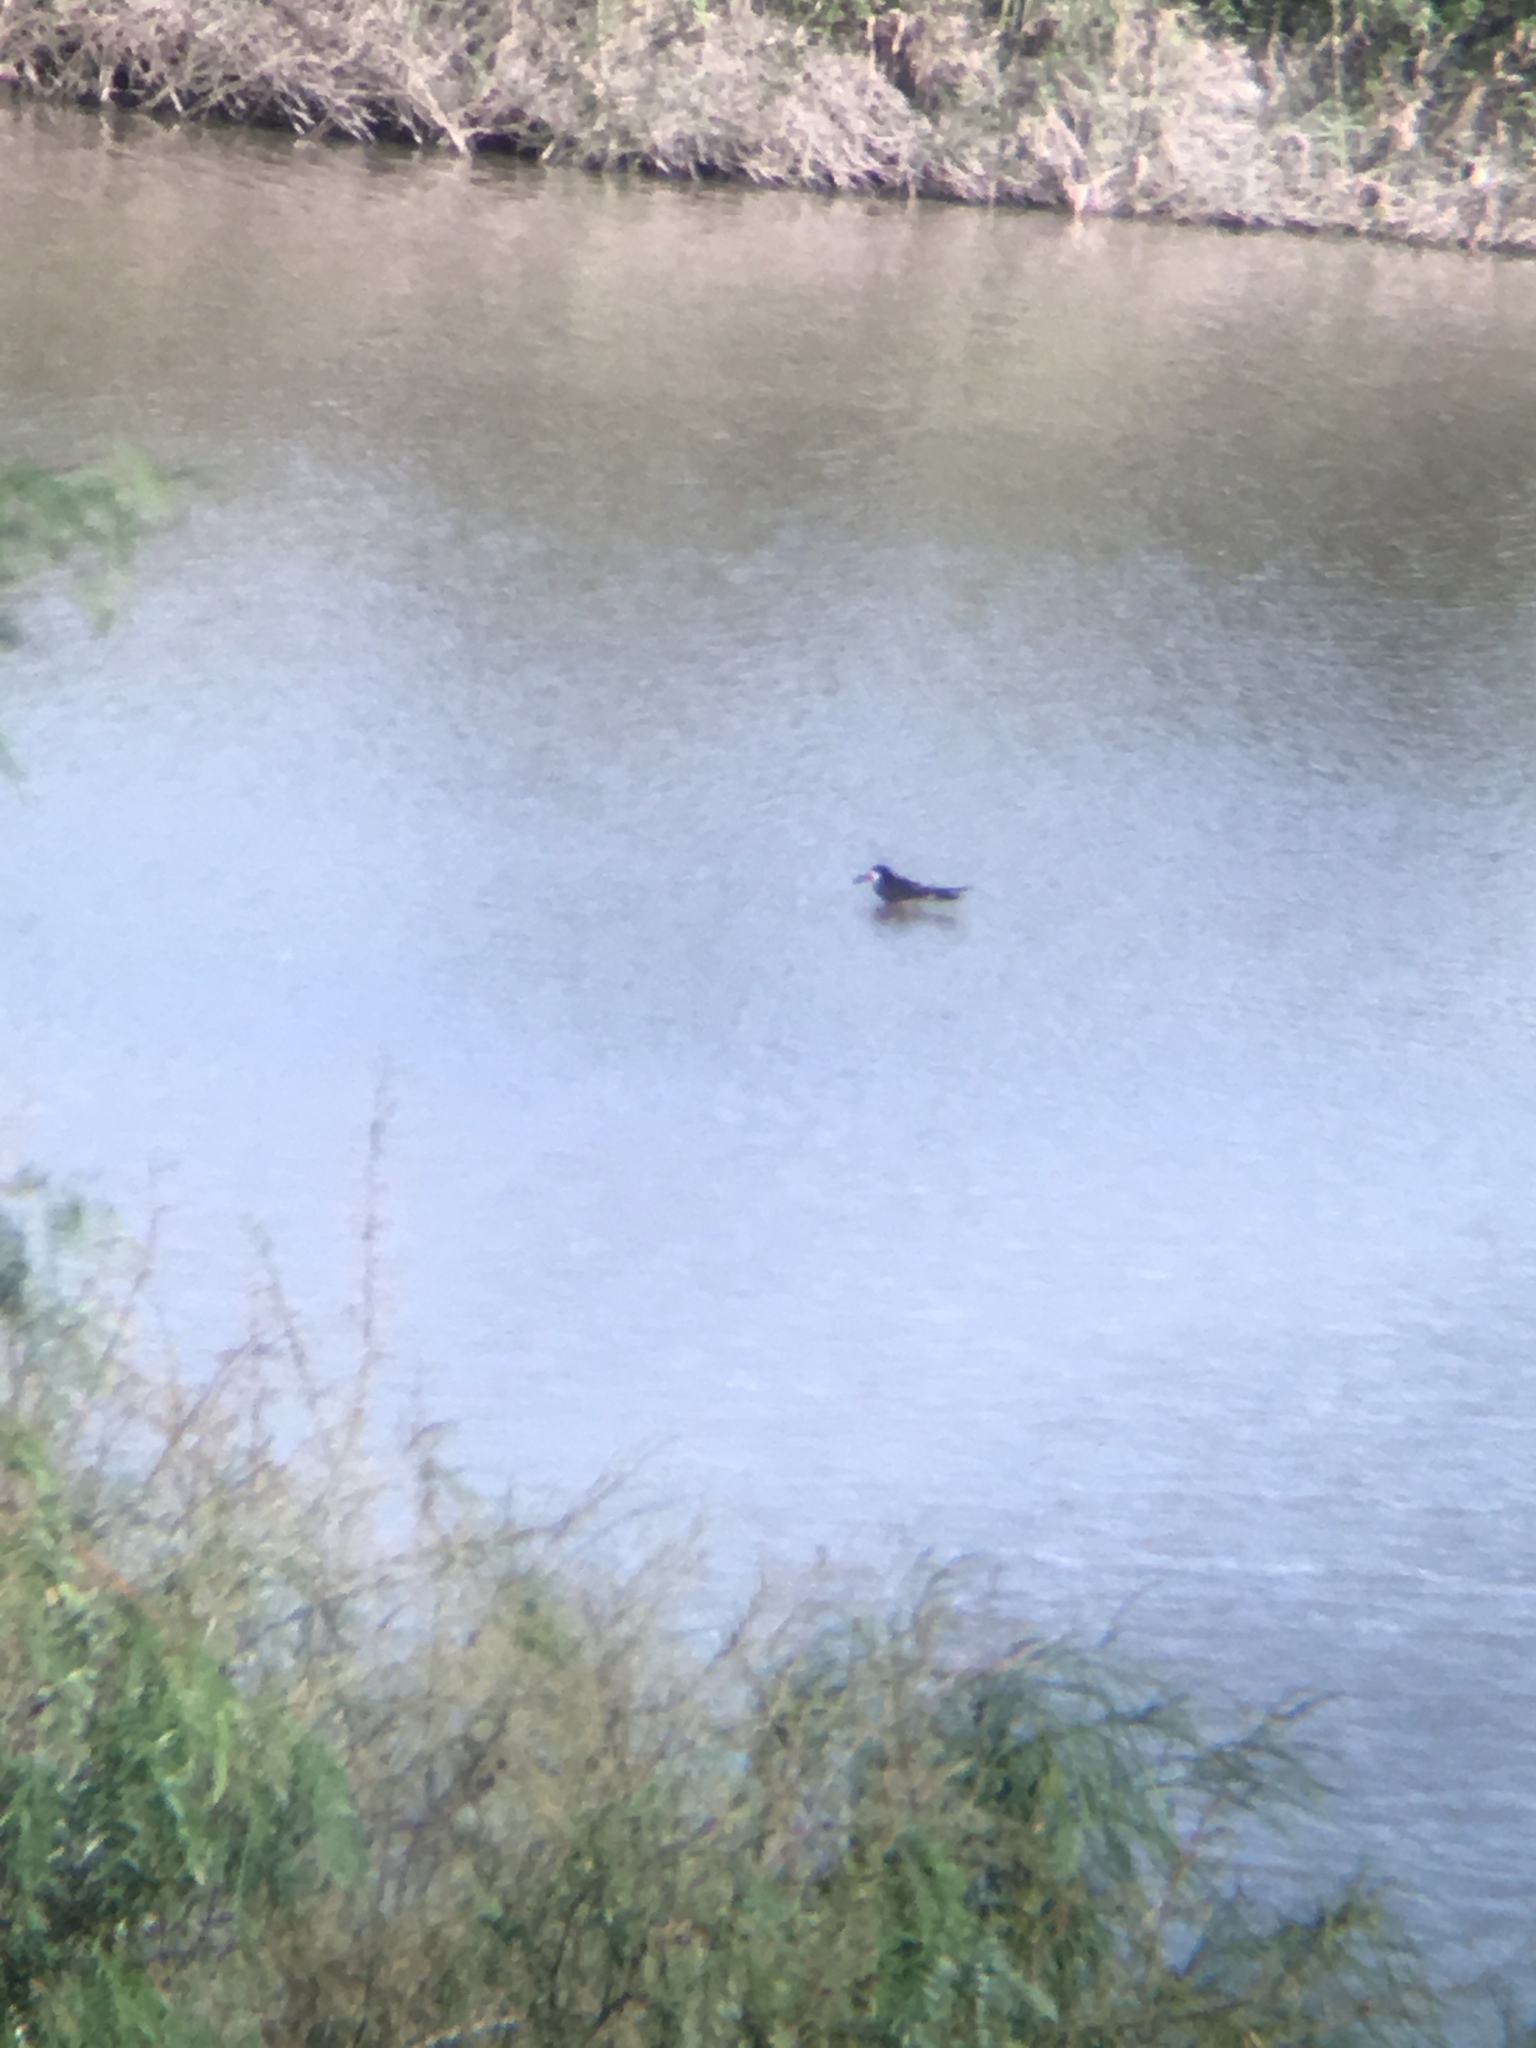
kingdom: Animalia
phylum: Chordata
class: Aves
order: Charadriiformes
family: Laridae
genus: Rynchops
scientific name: Rynchops niger
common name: Black skimmer
